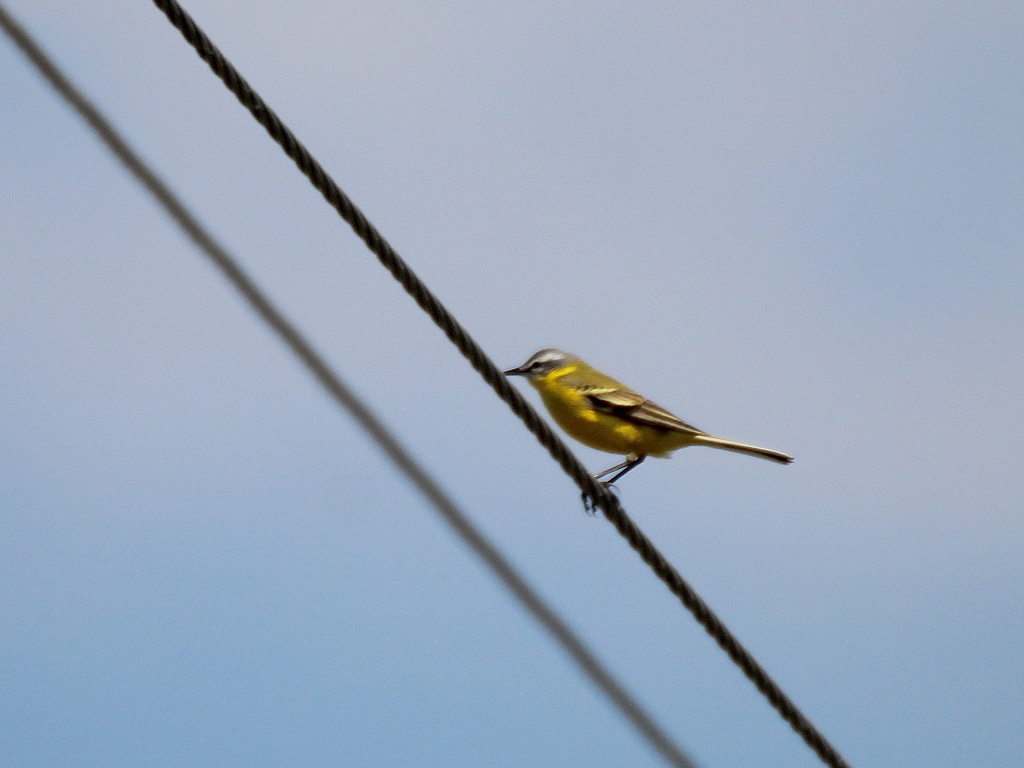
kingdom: Animalia
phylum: Chordata
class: Aves
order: Passeriformes
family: Motacillidae
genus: Motacilla
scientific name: Motacilla flava
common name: Western yellow wagtail
